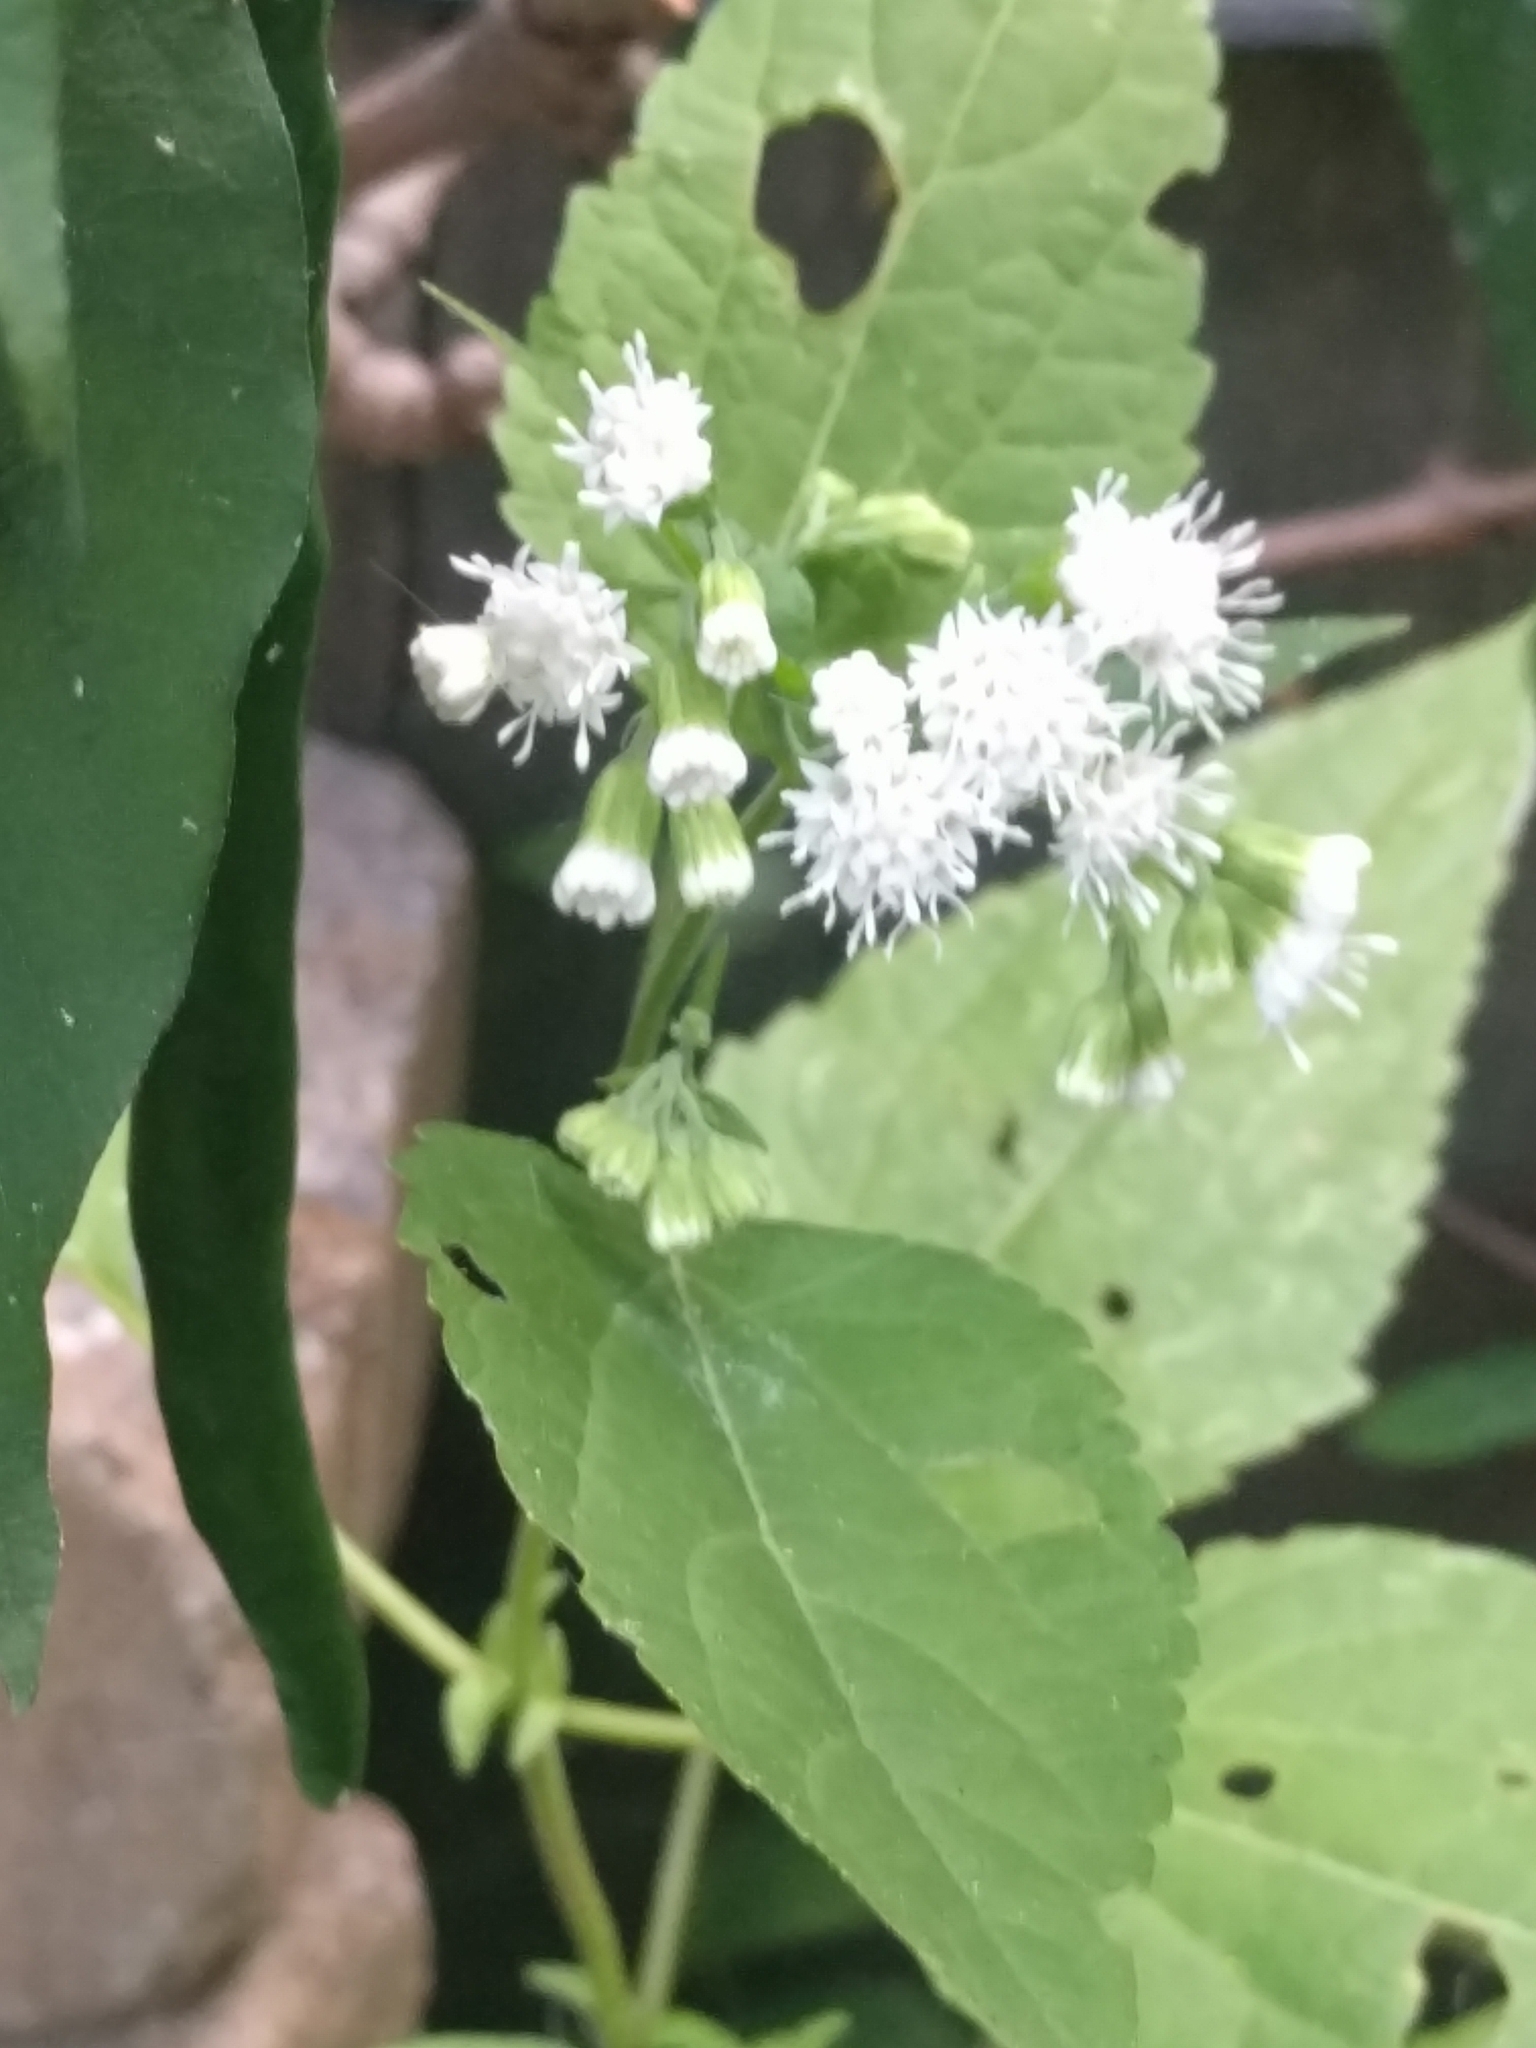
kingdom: Plantae
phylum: Tracheophyta
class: Magnoliopsida
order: Asterales
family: Asteraceae
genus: Ageratina
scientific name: Ageratina altissima
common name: White snakeroot
